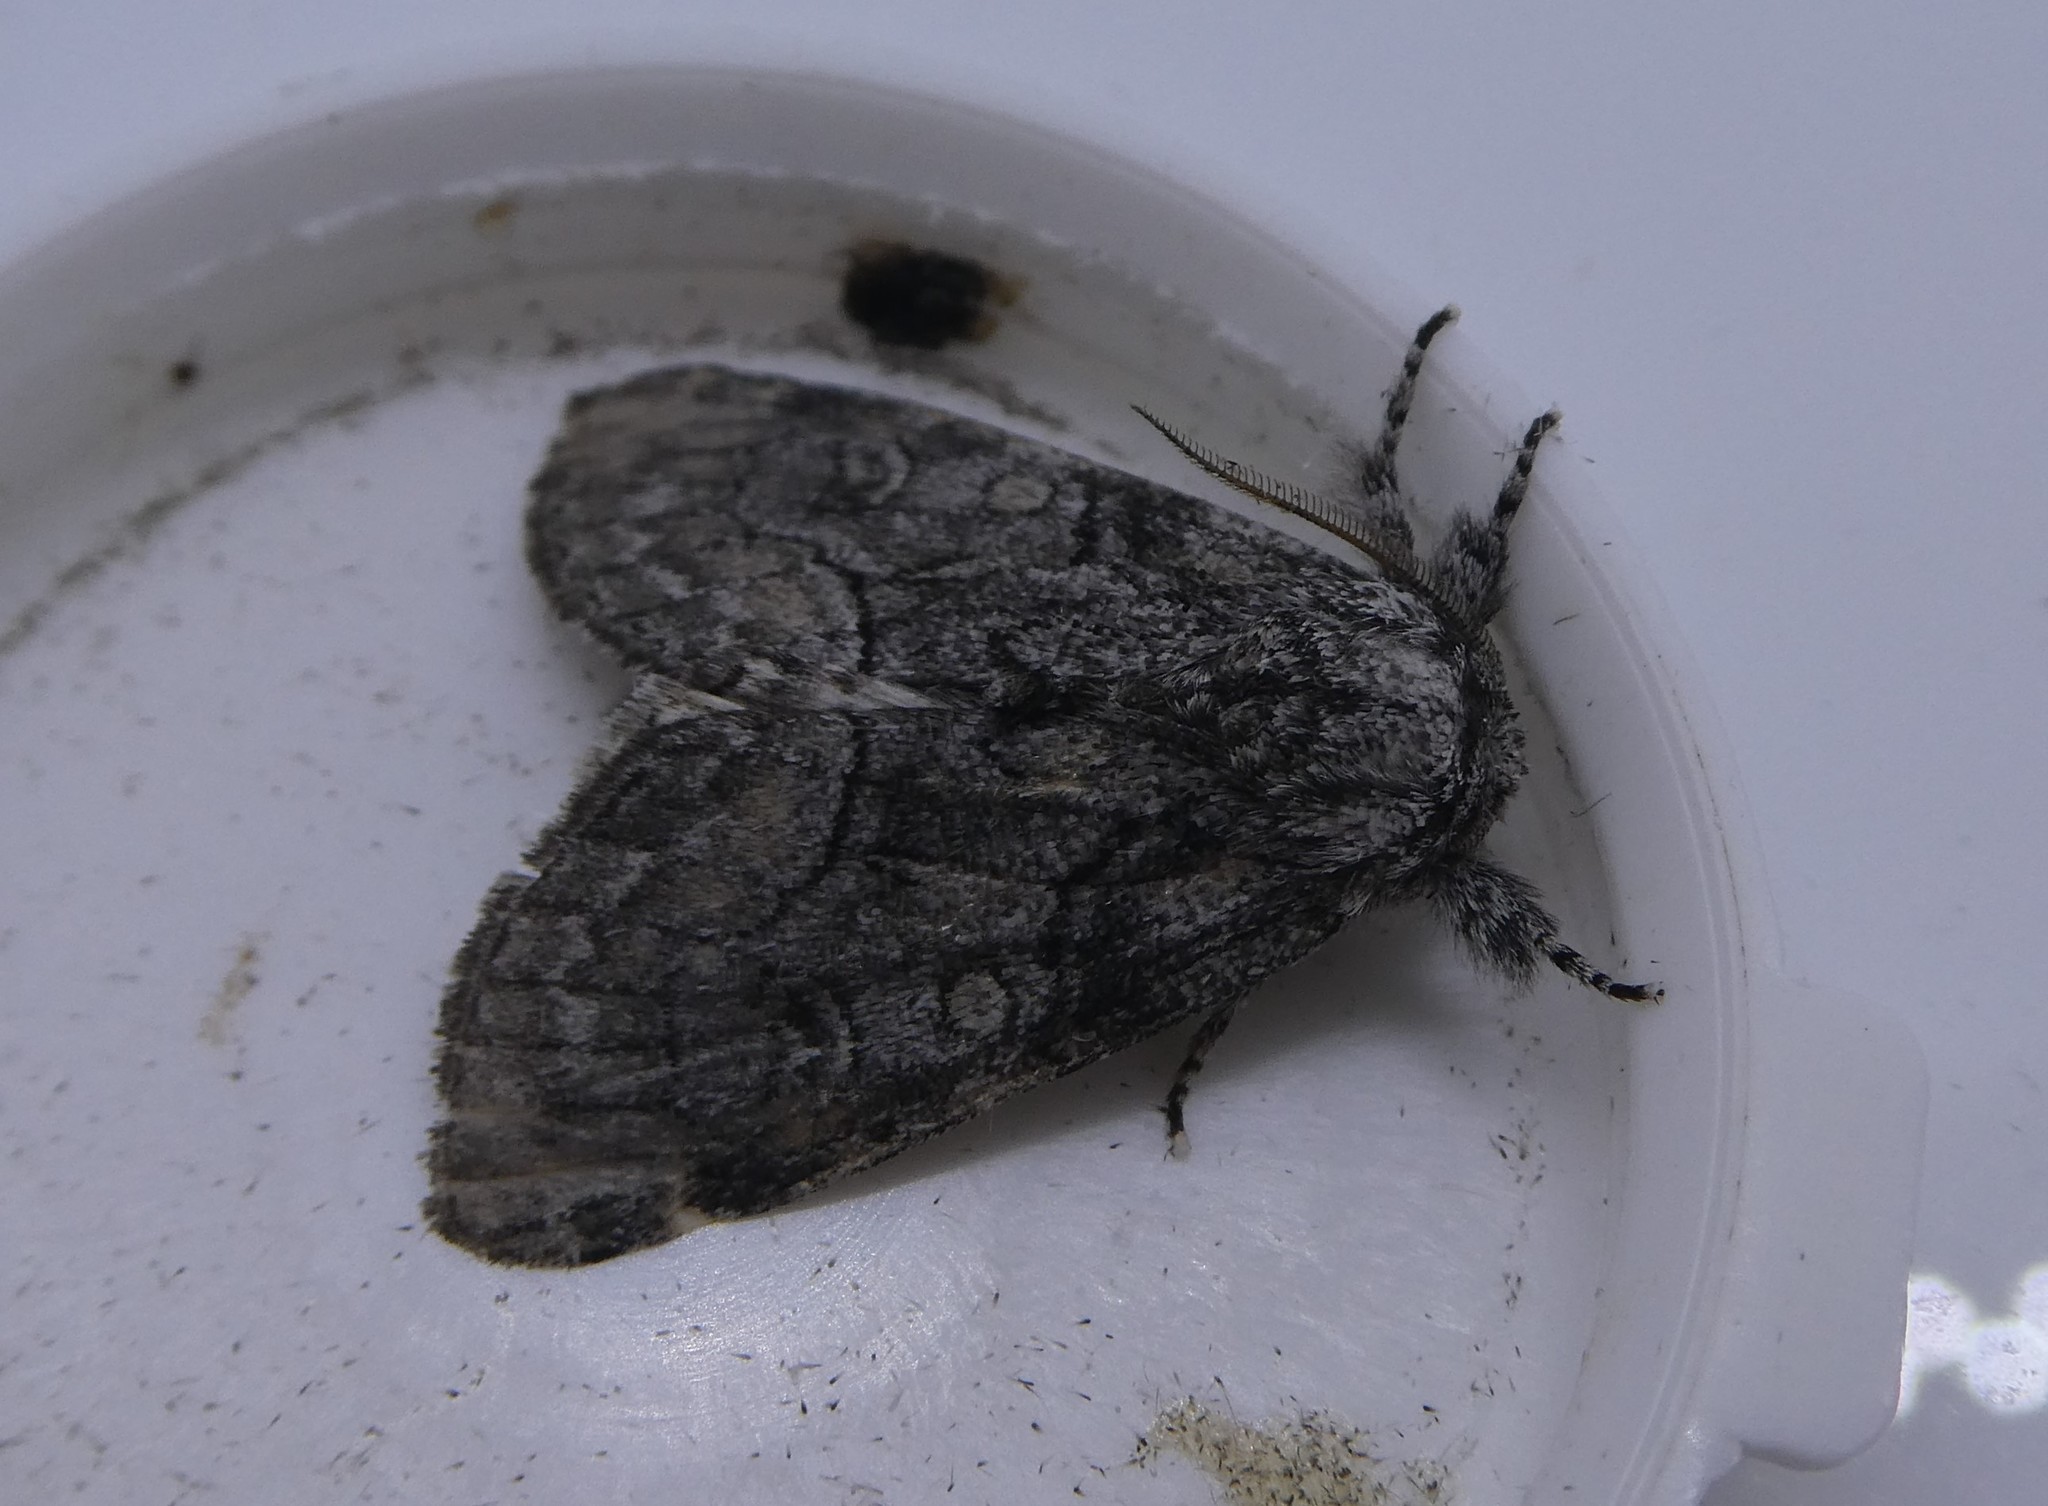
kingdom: Animalia
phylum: Arthropoda
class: Insecta
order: Lepidoptera
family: Noctuidae
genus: Raphia
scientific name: Raphia frater
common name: Brother
